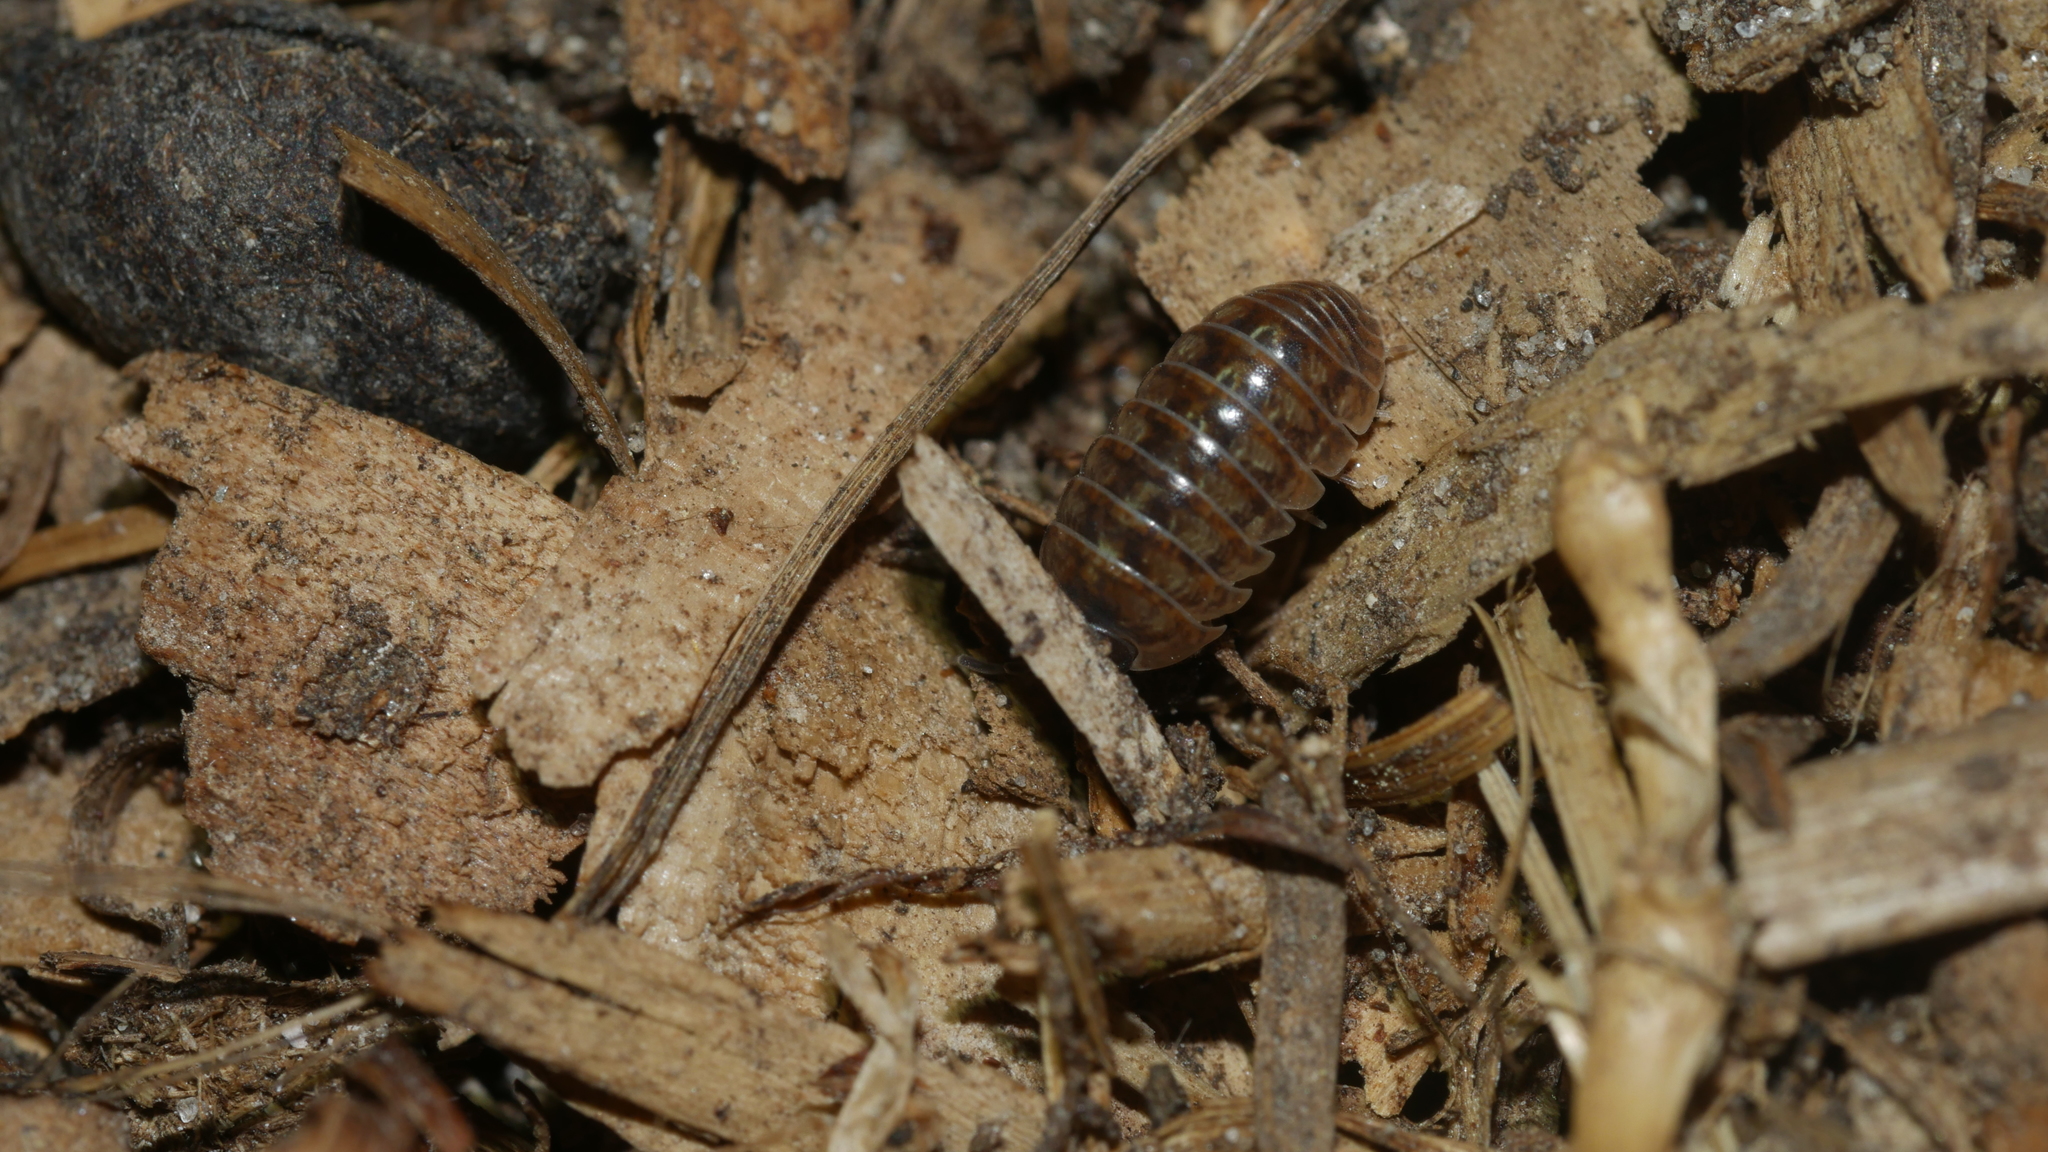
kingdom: Animalia
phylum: Arthropoda
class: Malacostraca
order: Isopoda
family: Armadillidiidae
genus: Armadillidium
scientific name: Armadillidium vulgare
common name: Common pill woodlouse
